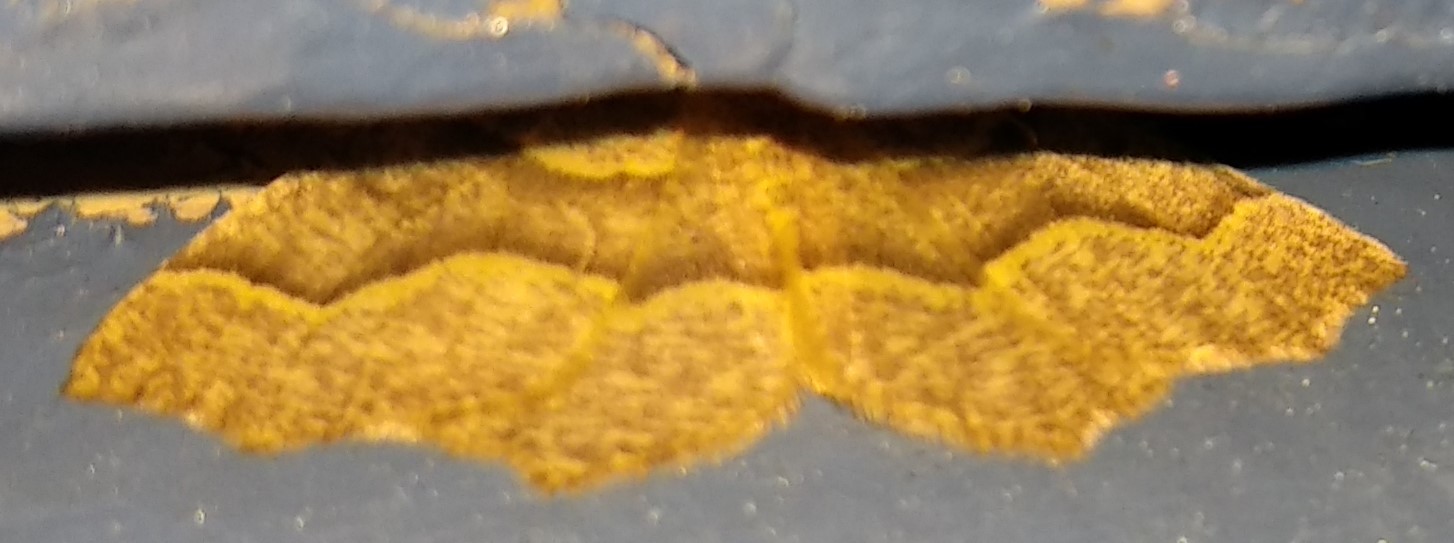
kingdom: Animalia
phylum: Arthropoda
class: Insecta
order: Lepidoptera
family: Geometridae
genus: Lambdina
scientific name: Lambdina fiscellaria
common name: Hemlock looper
